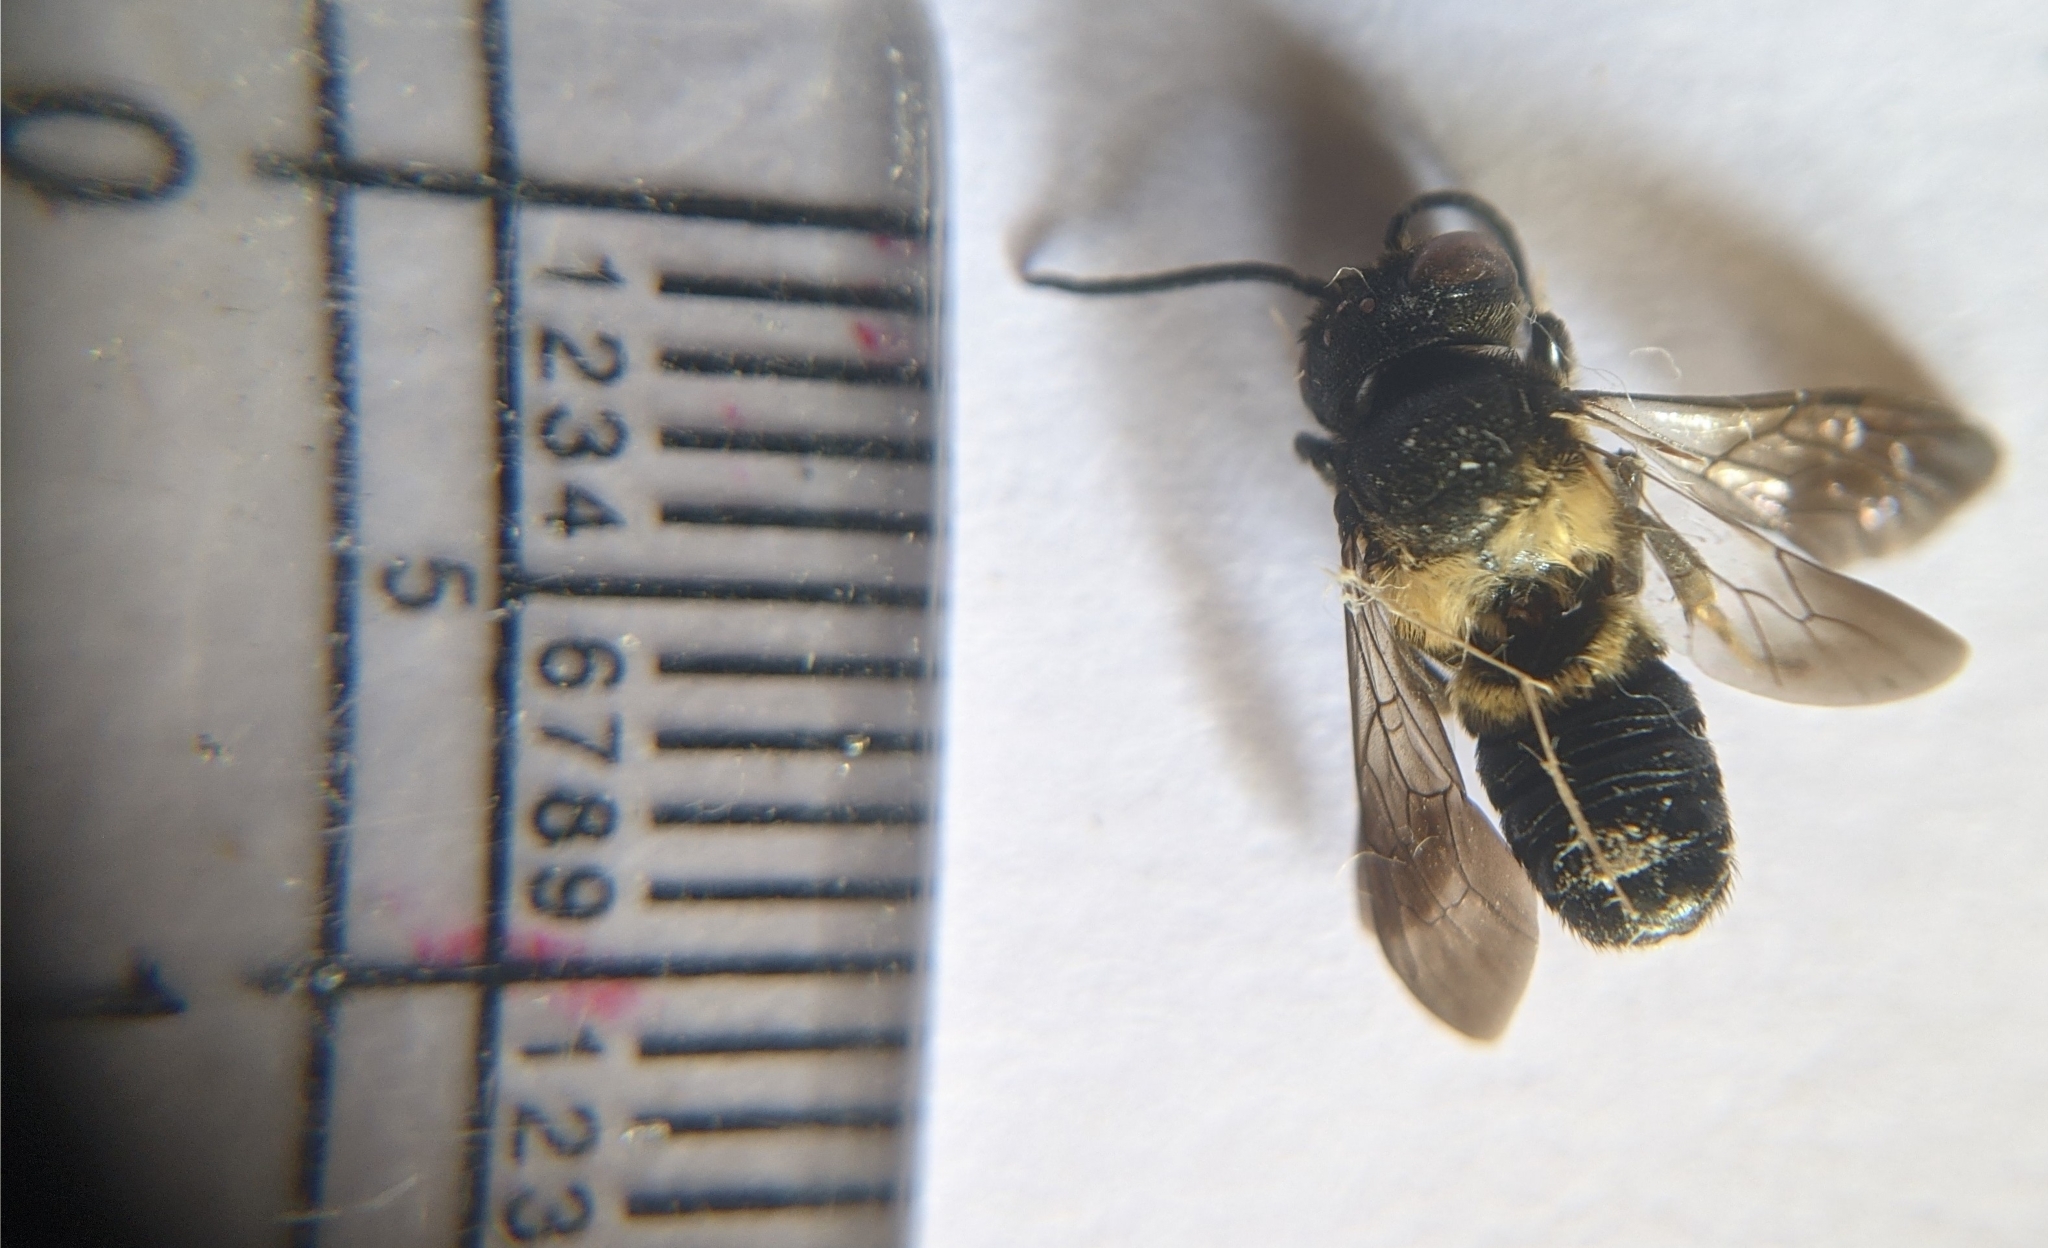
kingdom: Animalia
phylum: Arthropoda
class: Insecta
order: Hymenoptera
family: Megachilidae
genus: Megachile
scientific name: Megachile disjuncta
